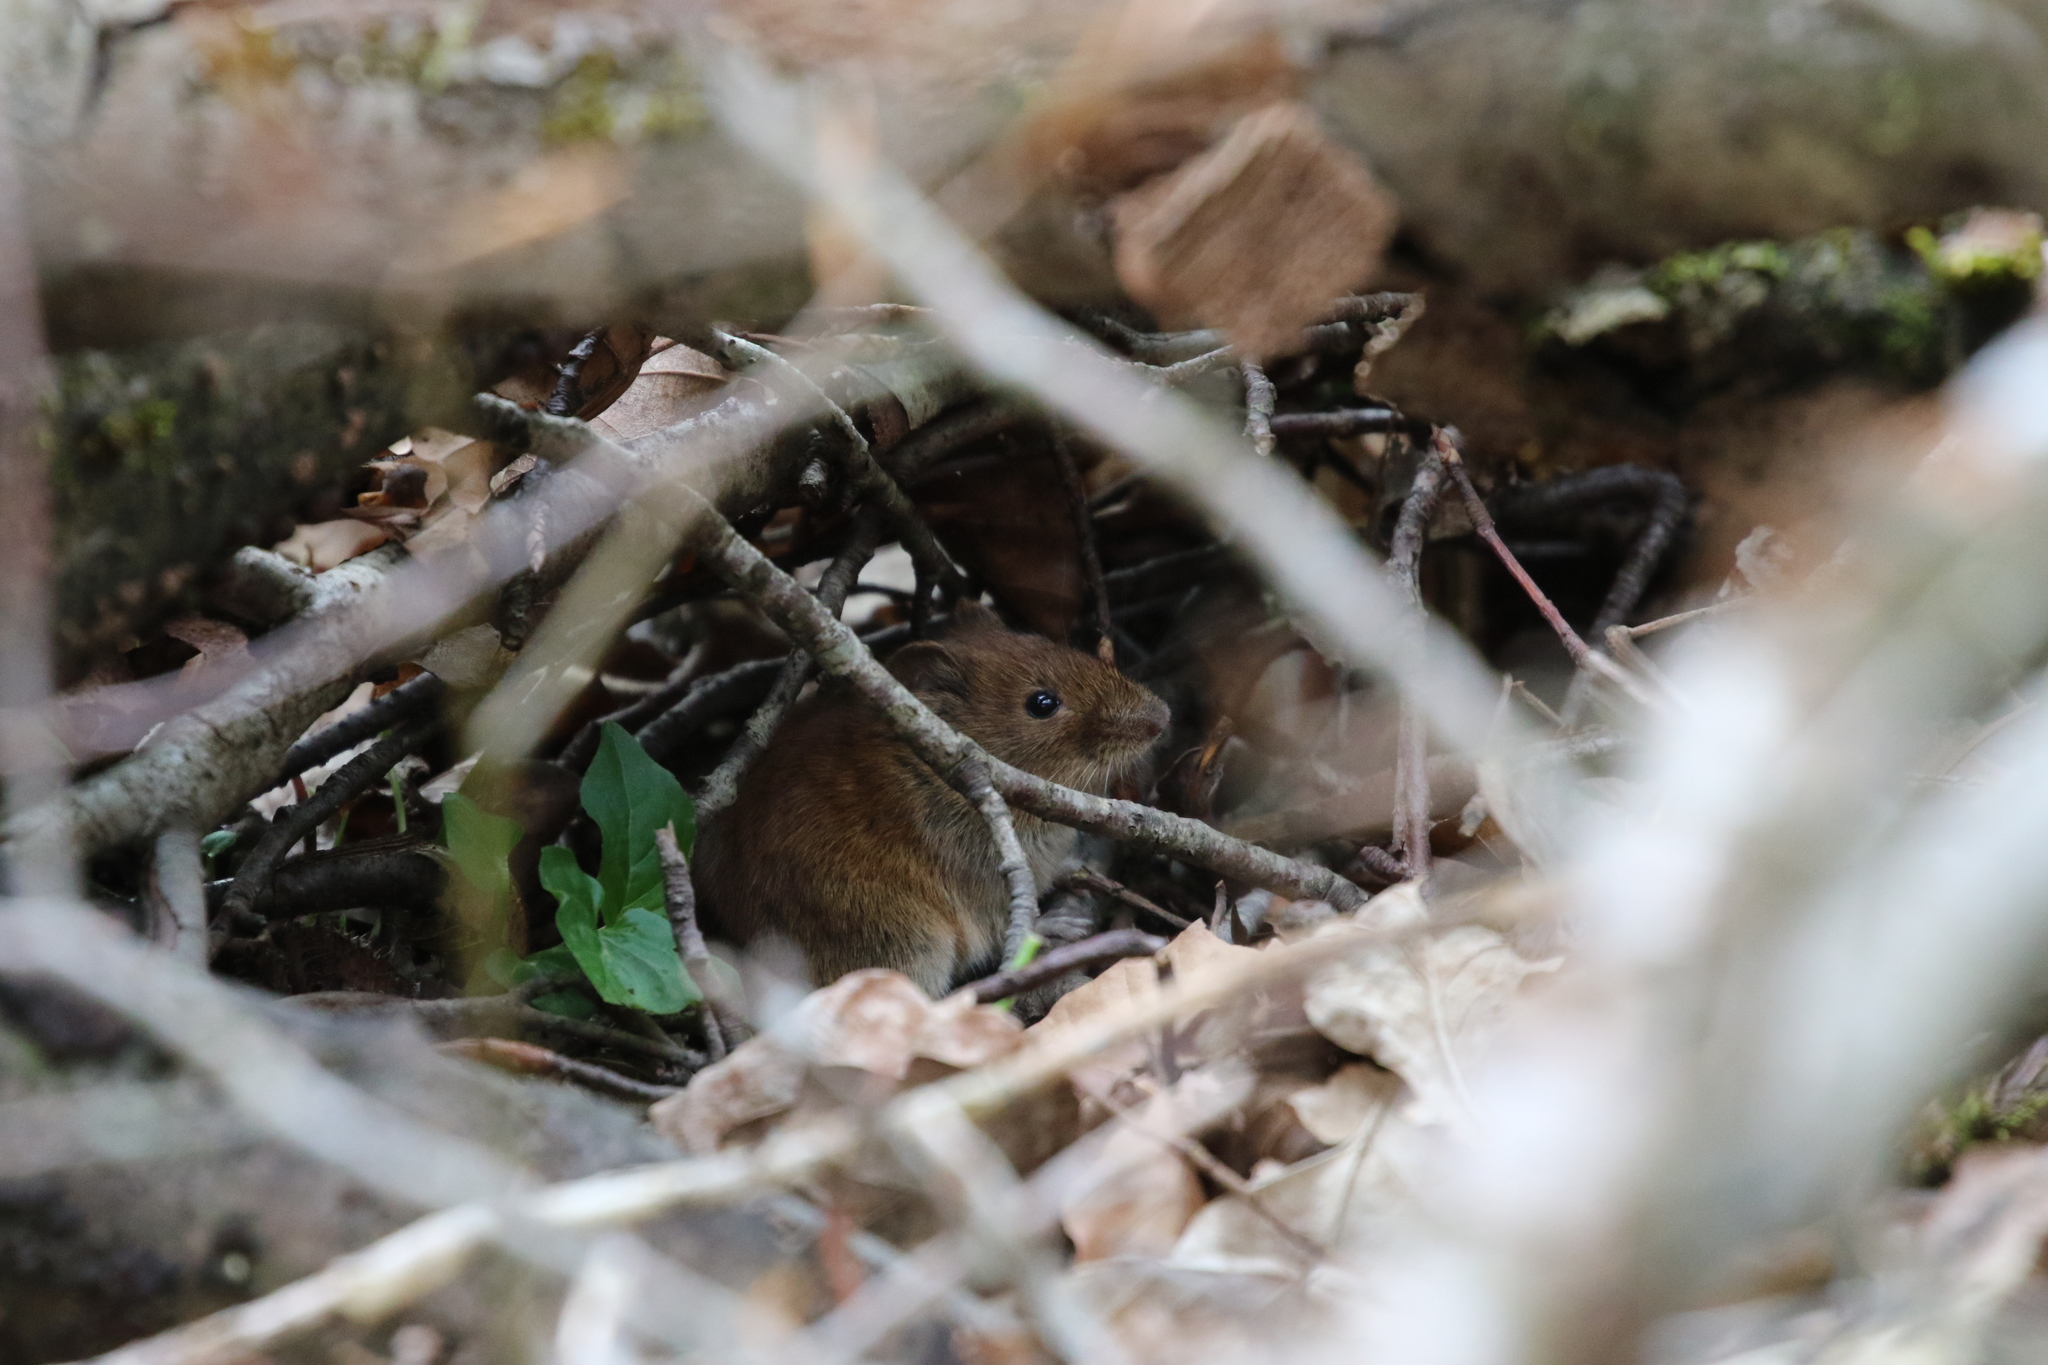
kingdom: Animalia
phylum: Chordata
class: Mammalia
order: Rodentia
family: Cricetidae
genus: Myodes
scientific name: Myodes glareolus
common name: Bank vole
